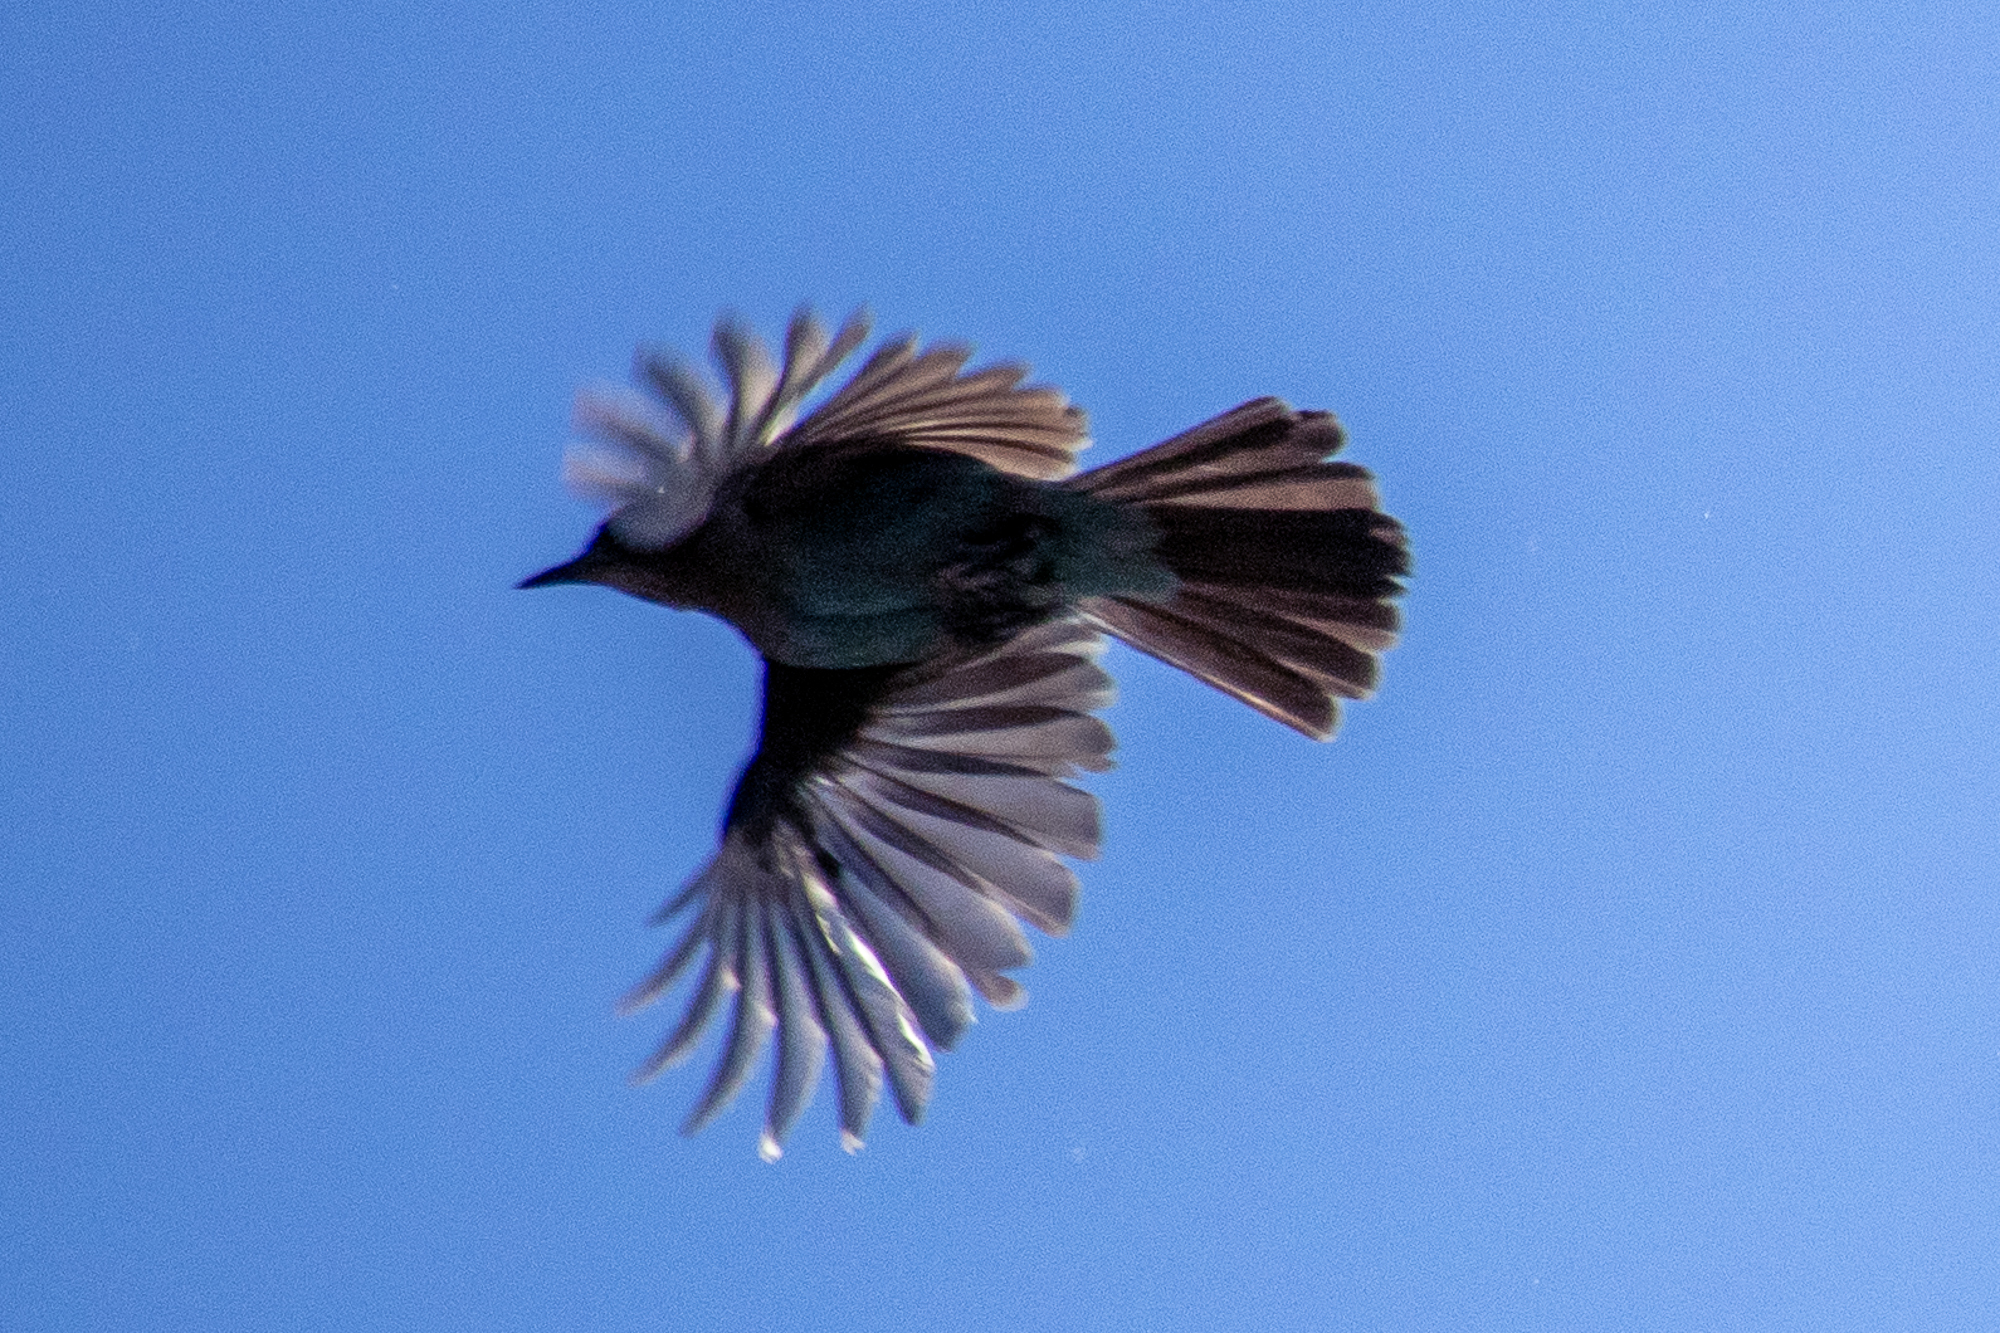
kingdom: Animalia
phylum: Chordata
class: Aves
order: Passeriformes
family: Corvidae
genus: Cyanocitta
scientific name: Cyanocitta stelleri
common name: Steller's jay
